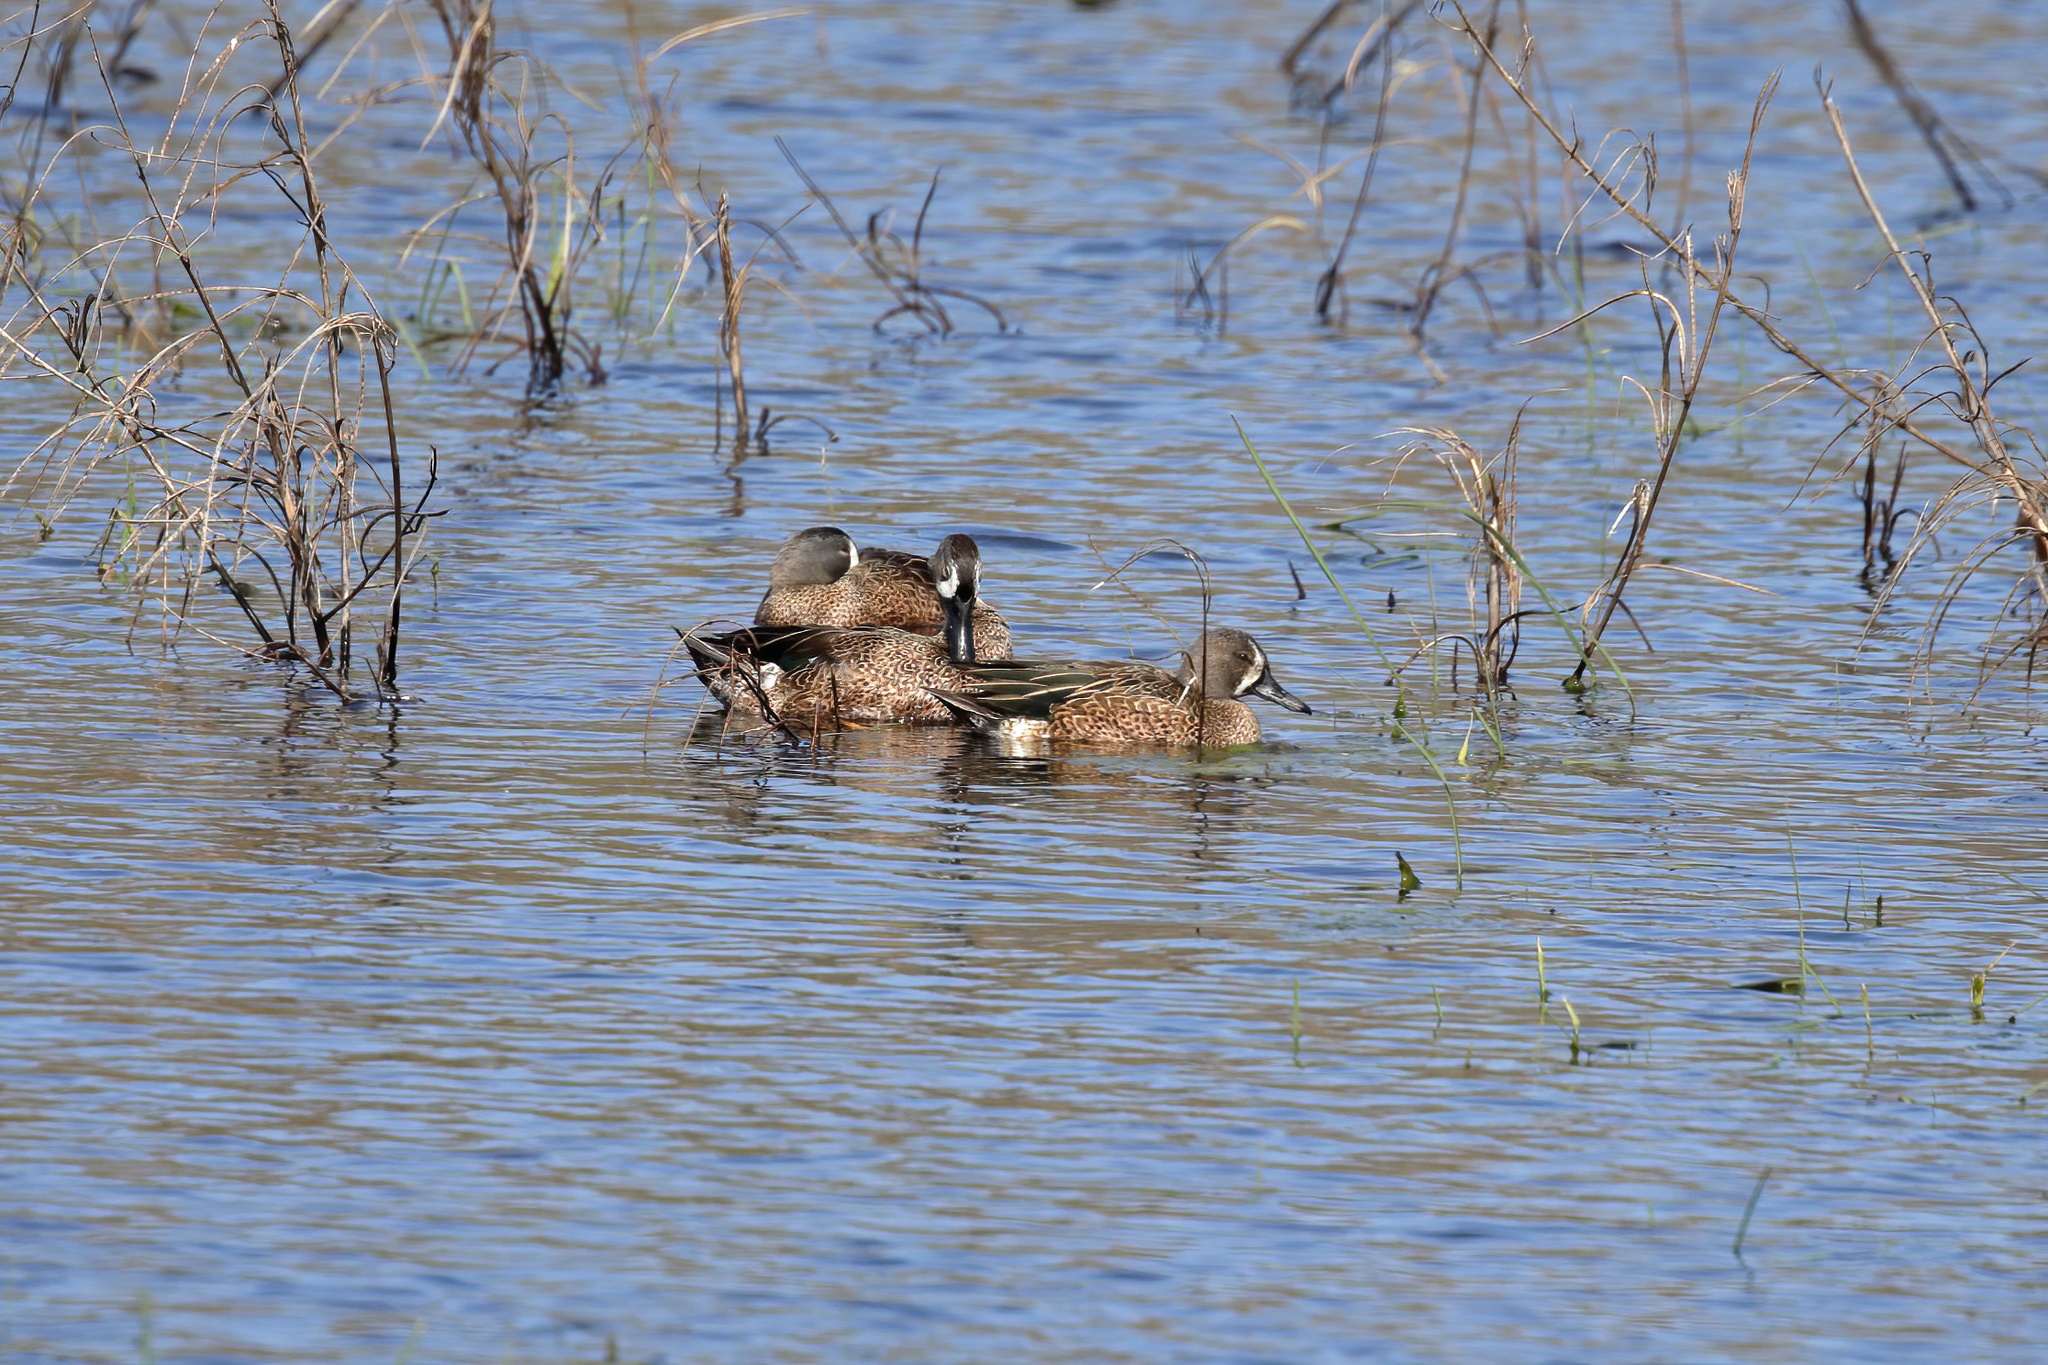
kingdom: Animalia
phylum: Chordata
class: Aves
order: Anseriformes
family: Anatidae
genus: Spatula
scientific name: Spatula discors
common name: Blue-winged teal
